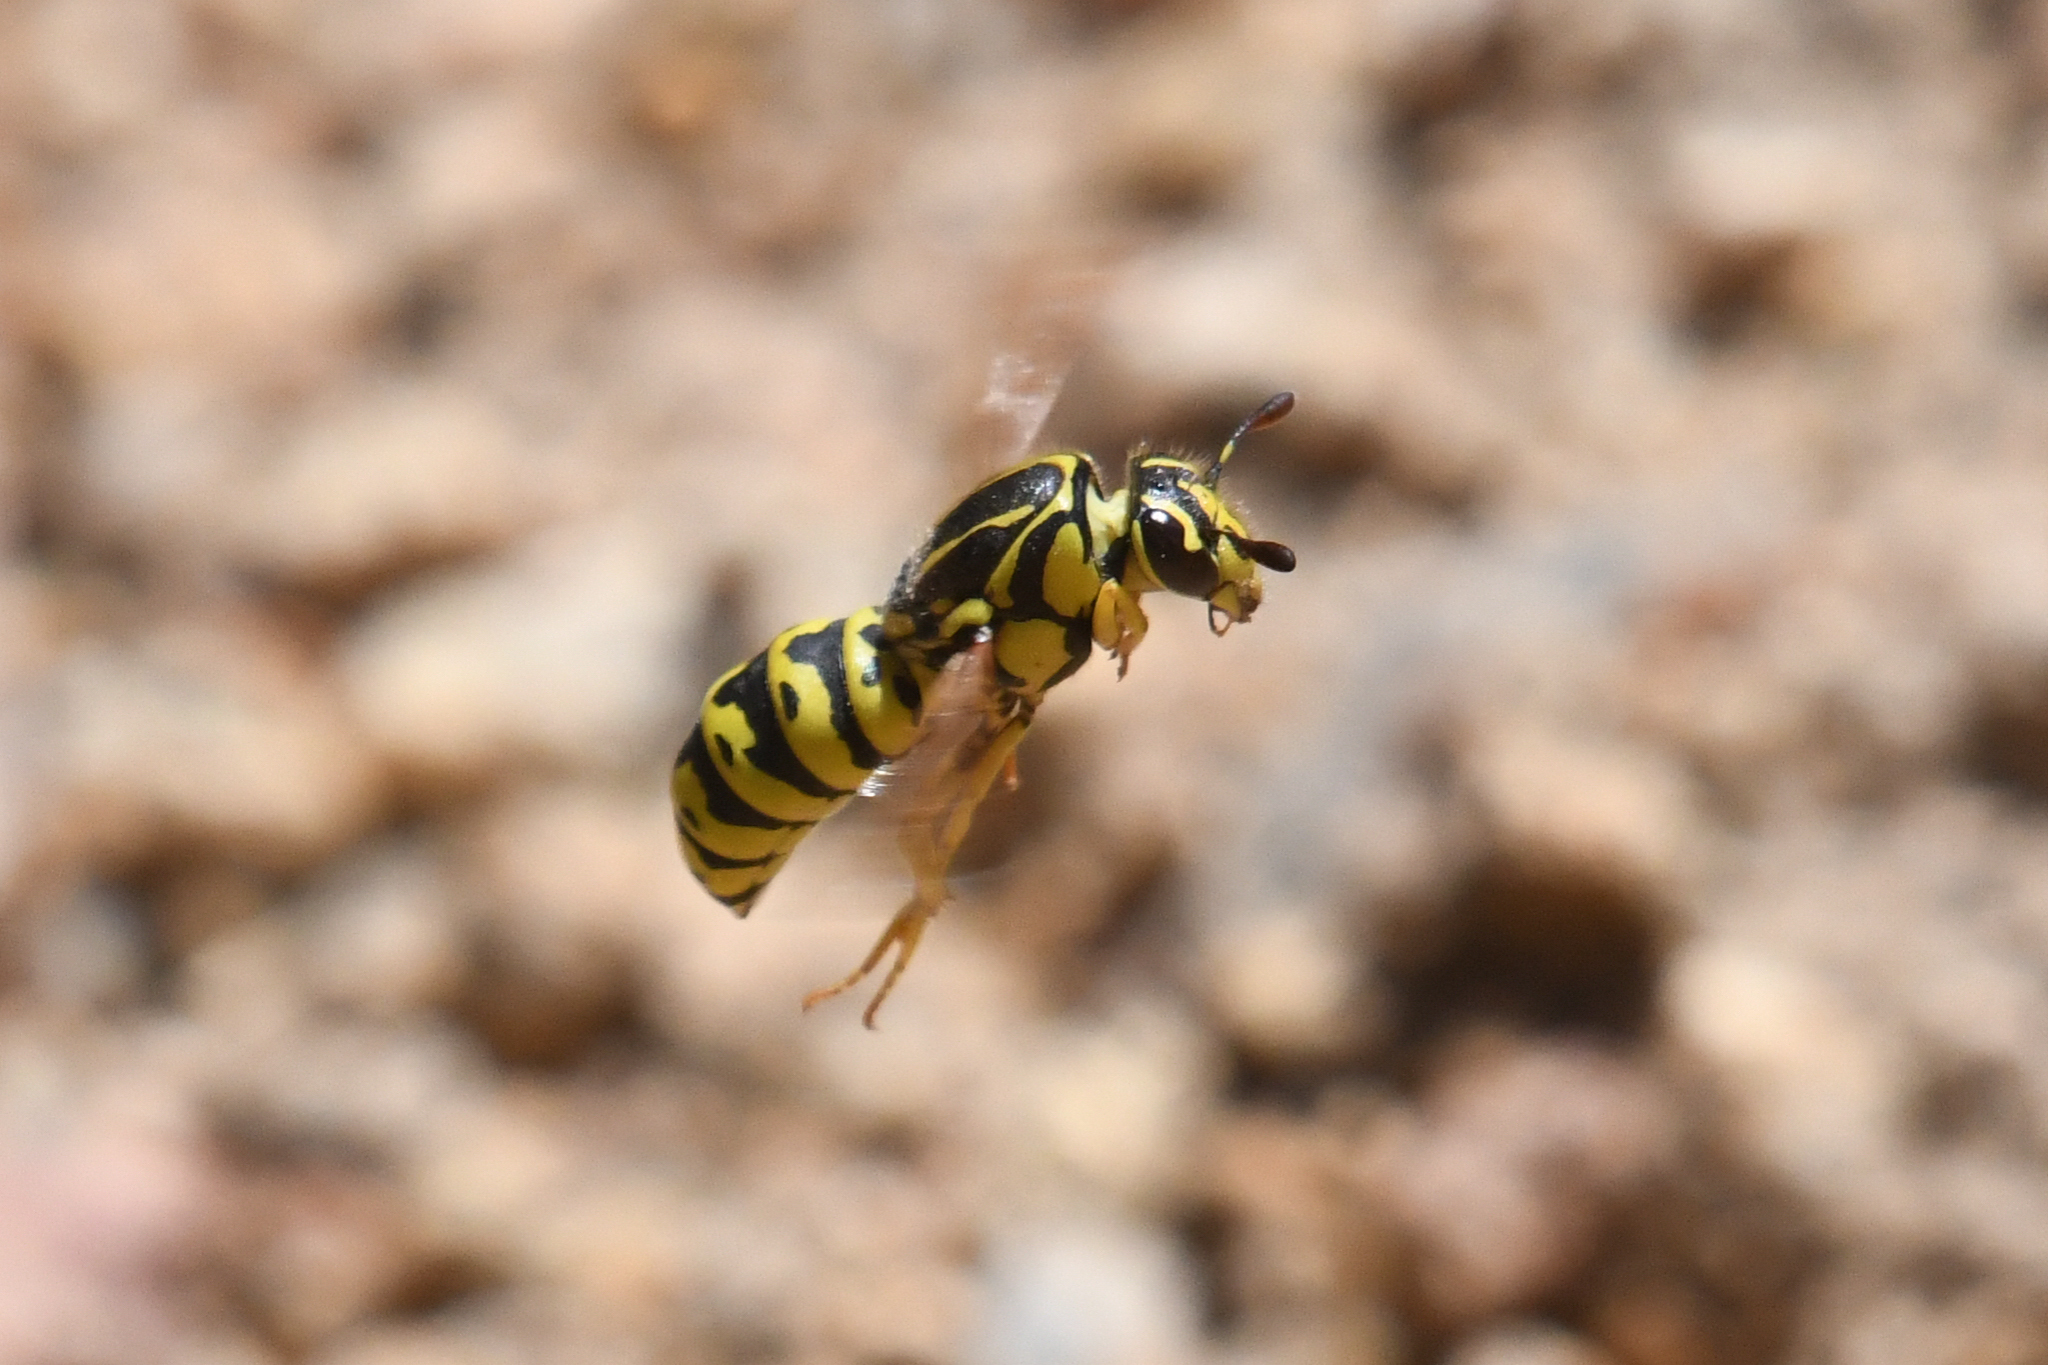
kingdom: Animalia
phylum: Arthropoda
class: Insecta
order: Hymenoptera
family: Masaridae
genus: Pseudomasaris
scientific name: Pseudomasaris wheeleri
